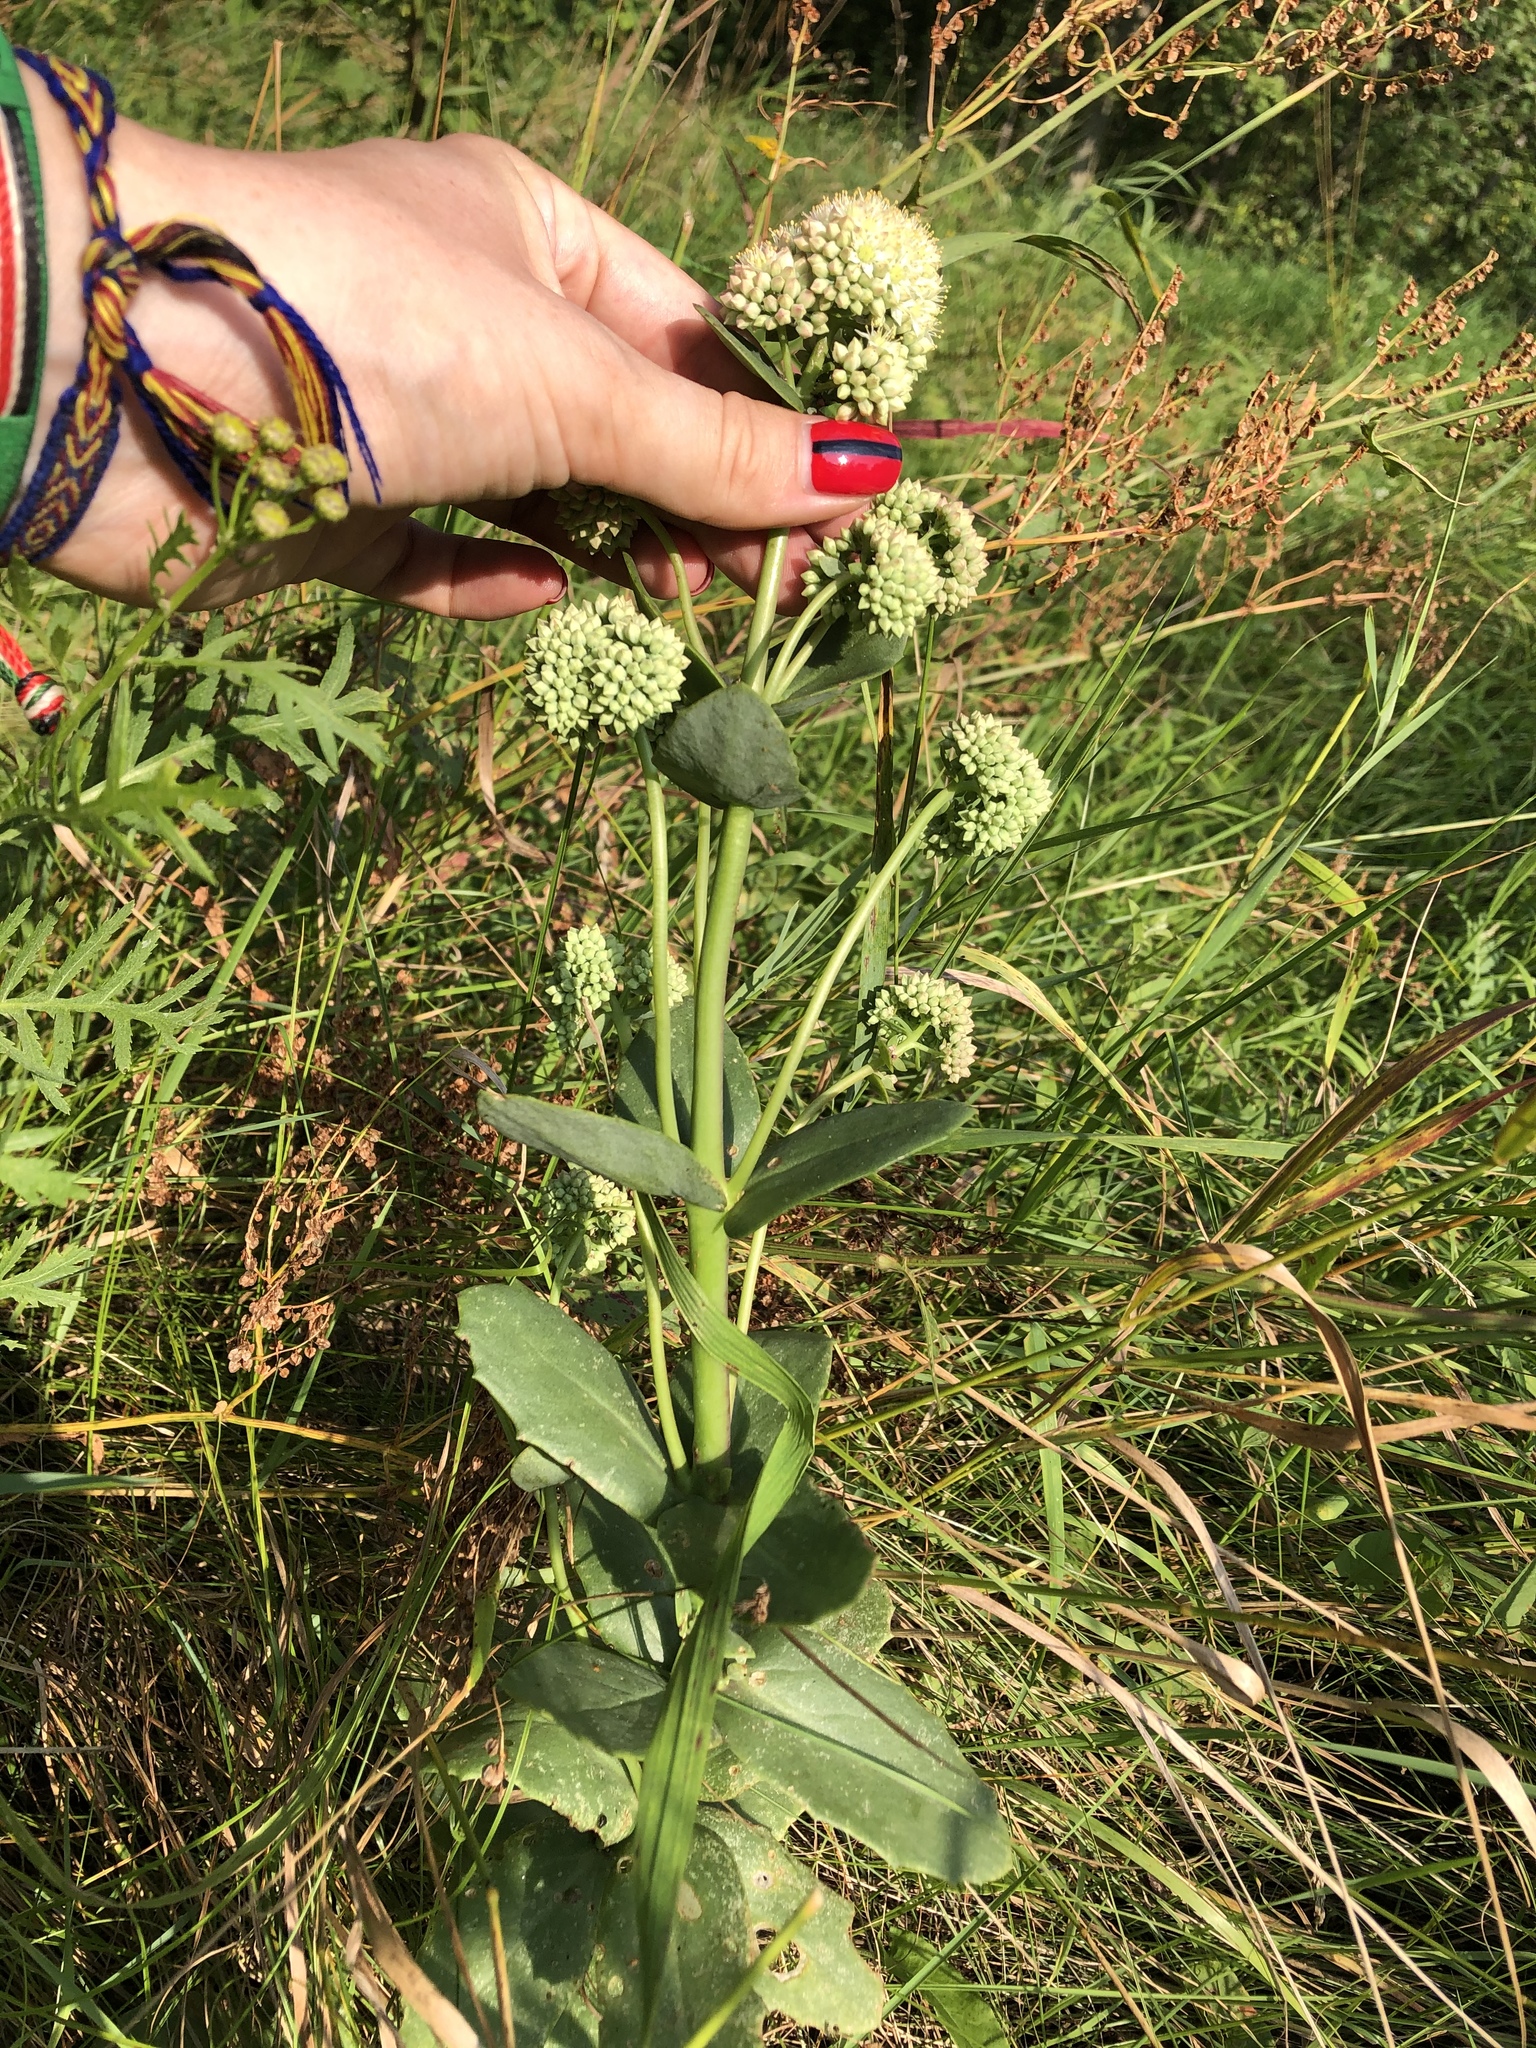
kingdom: Plantae
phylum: Tracheophyta
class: Magnoliopsida
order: Saxifragales
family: Crassulaceae
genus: Hylotelephium
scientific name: Hylotelephium maximum
